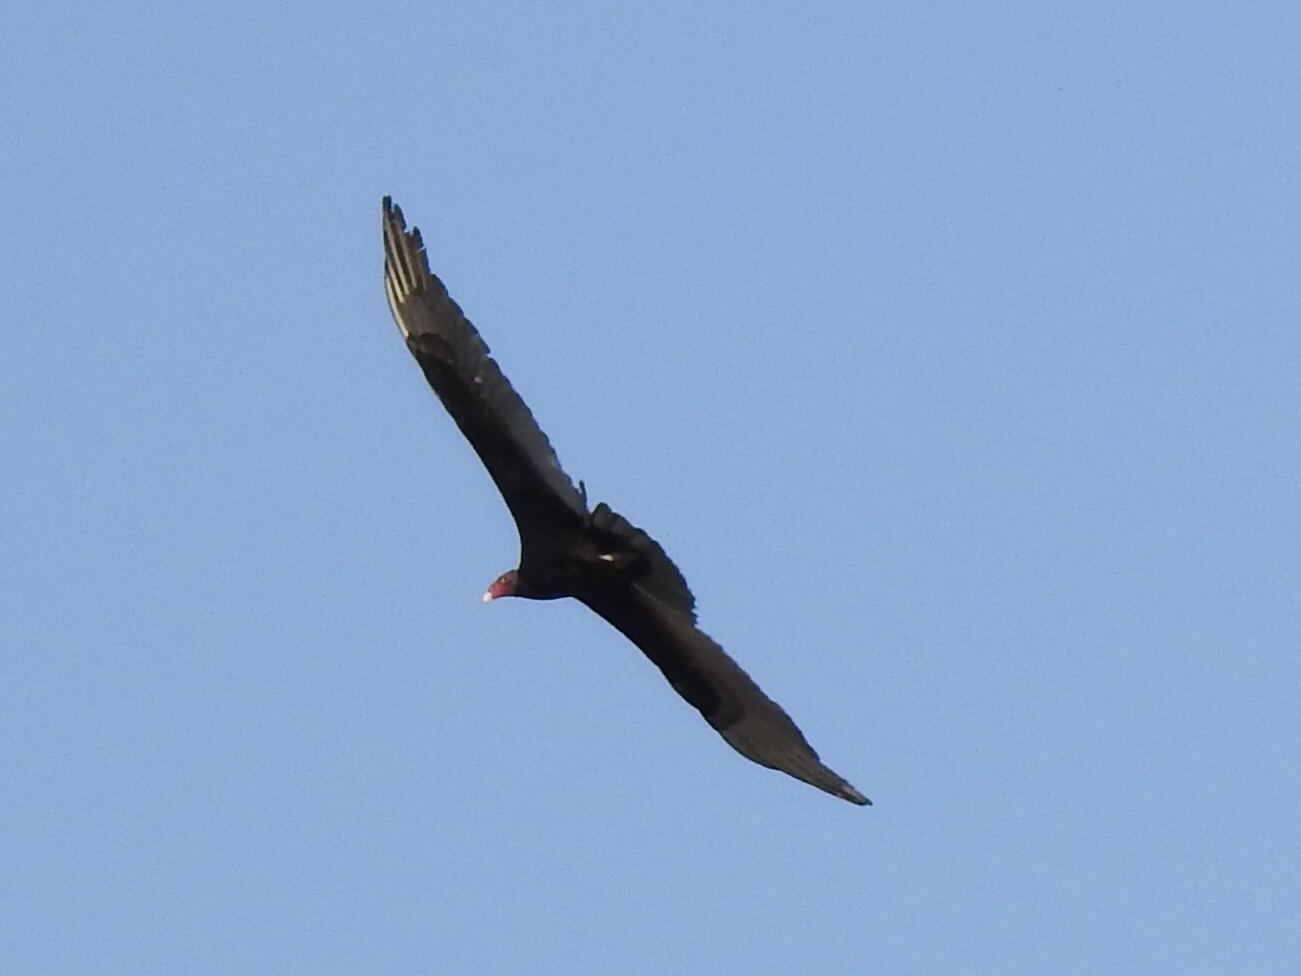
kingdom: Animalia
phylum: Chordata
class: Aves
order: Accipitriformes
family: Cathartidae
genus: Cathartes
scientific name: Cathartes aura
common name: Turkey vulture
